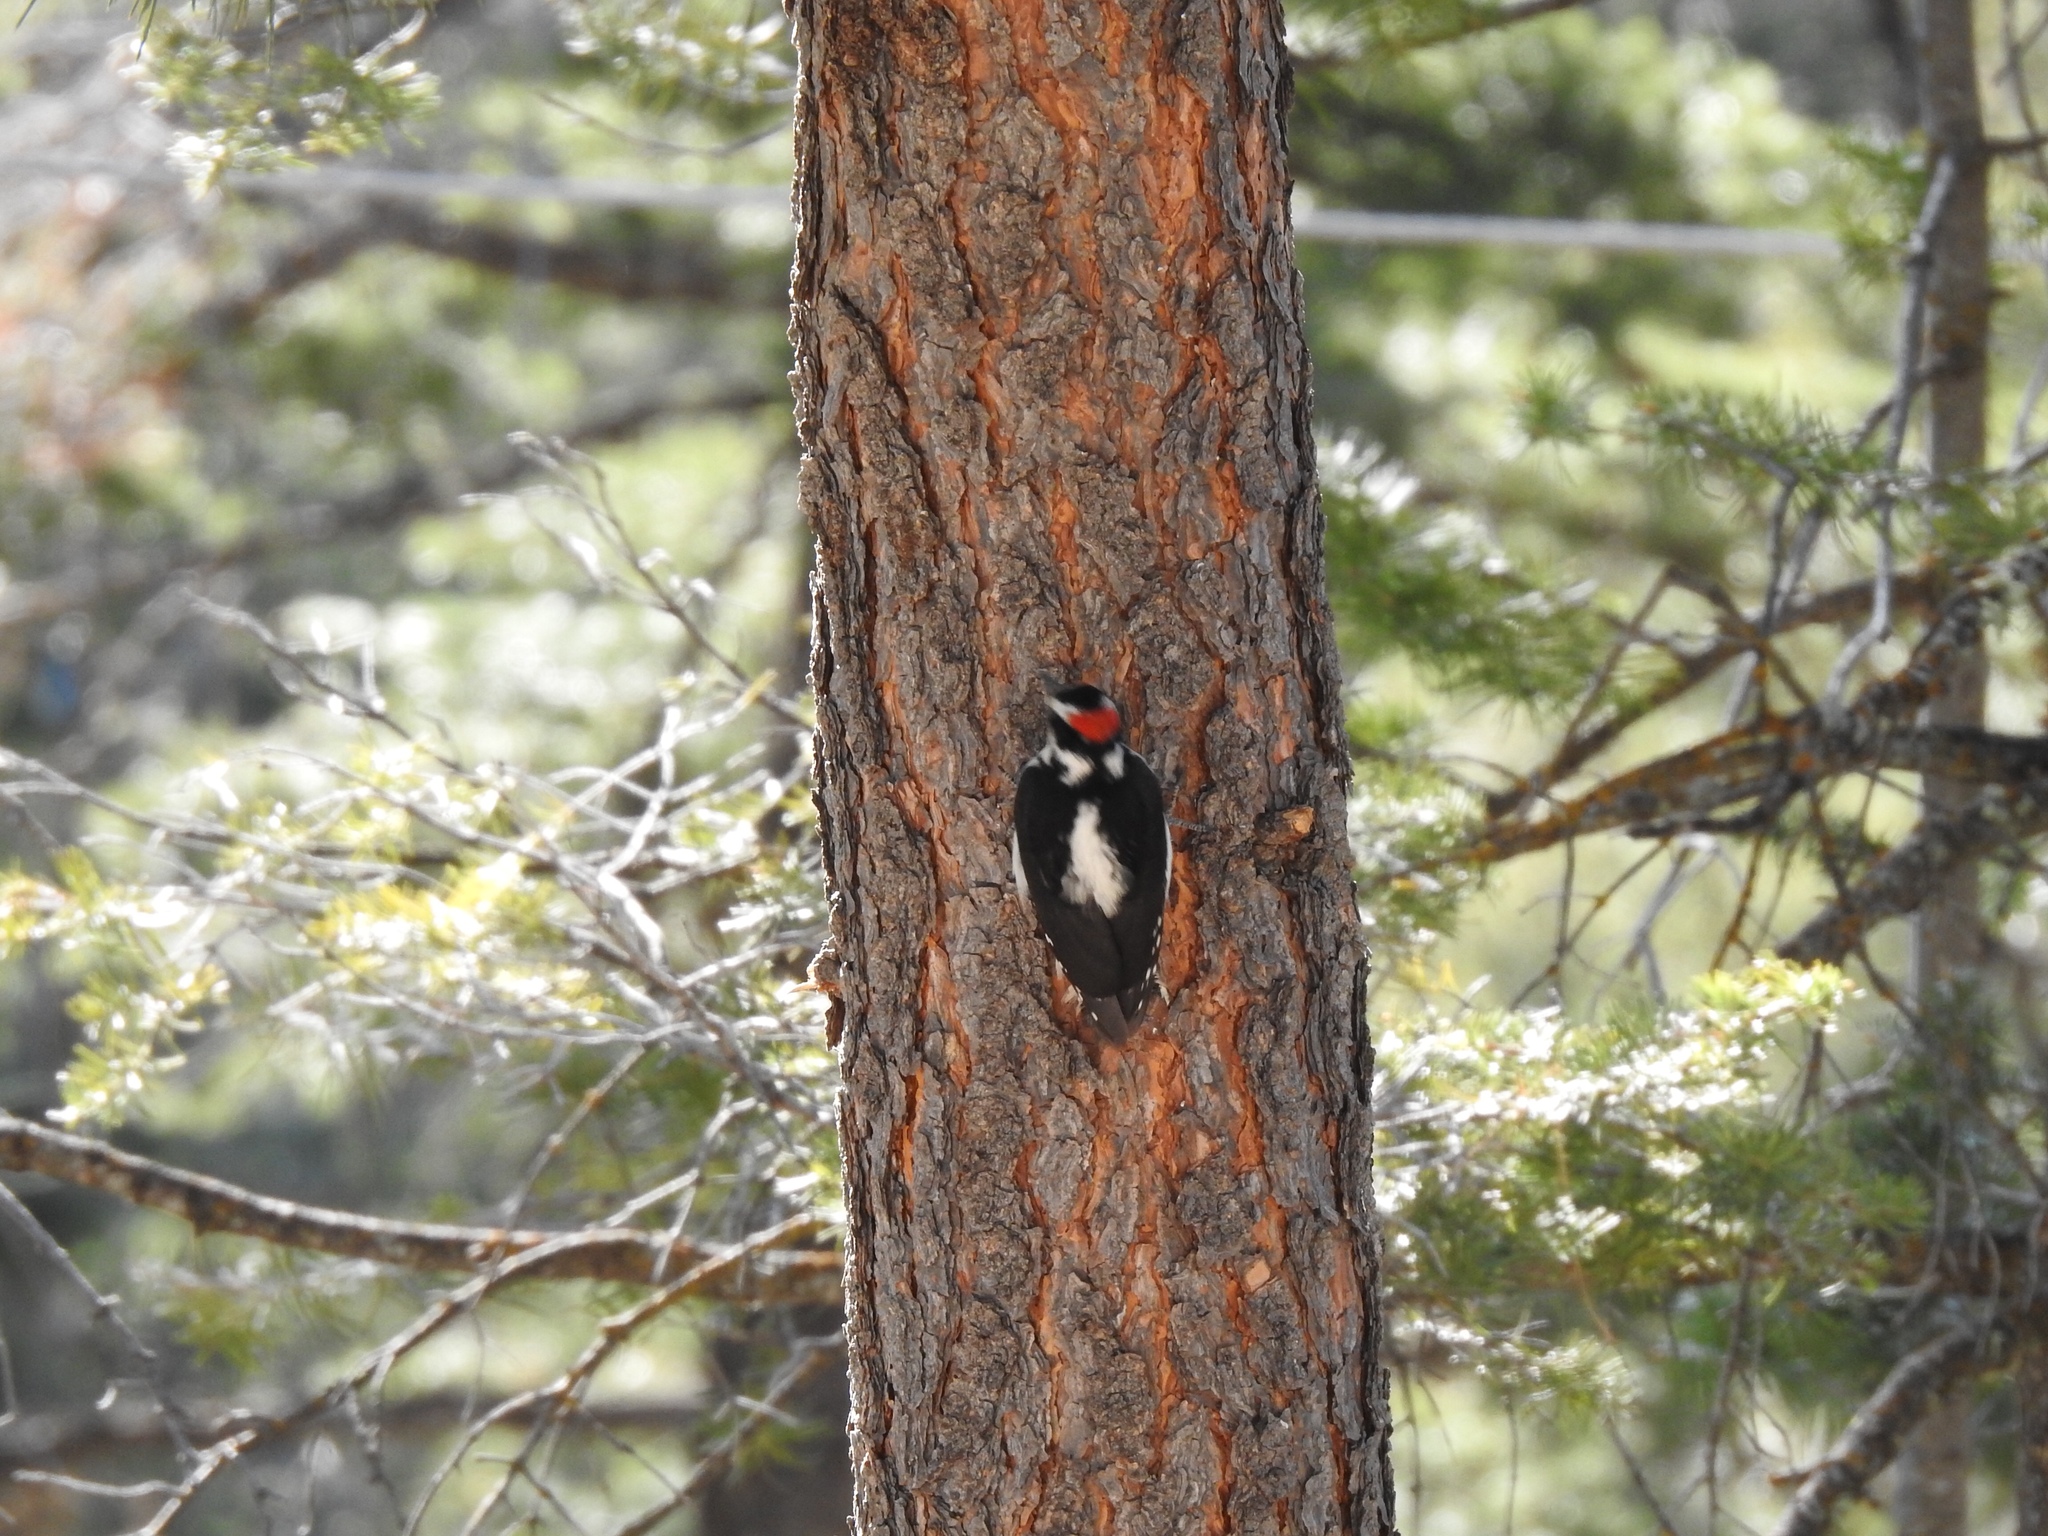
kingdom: Animalia
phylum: Chordata
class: Aves
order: Piciformes
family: Picidae
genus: Leuconotopicus
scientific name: Leuconotopicus villosus
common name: Hairy woodpecker
